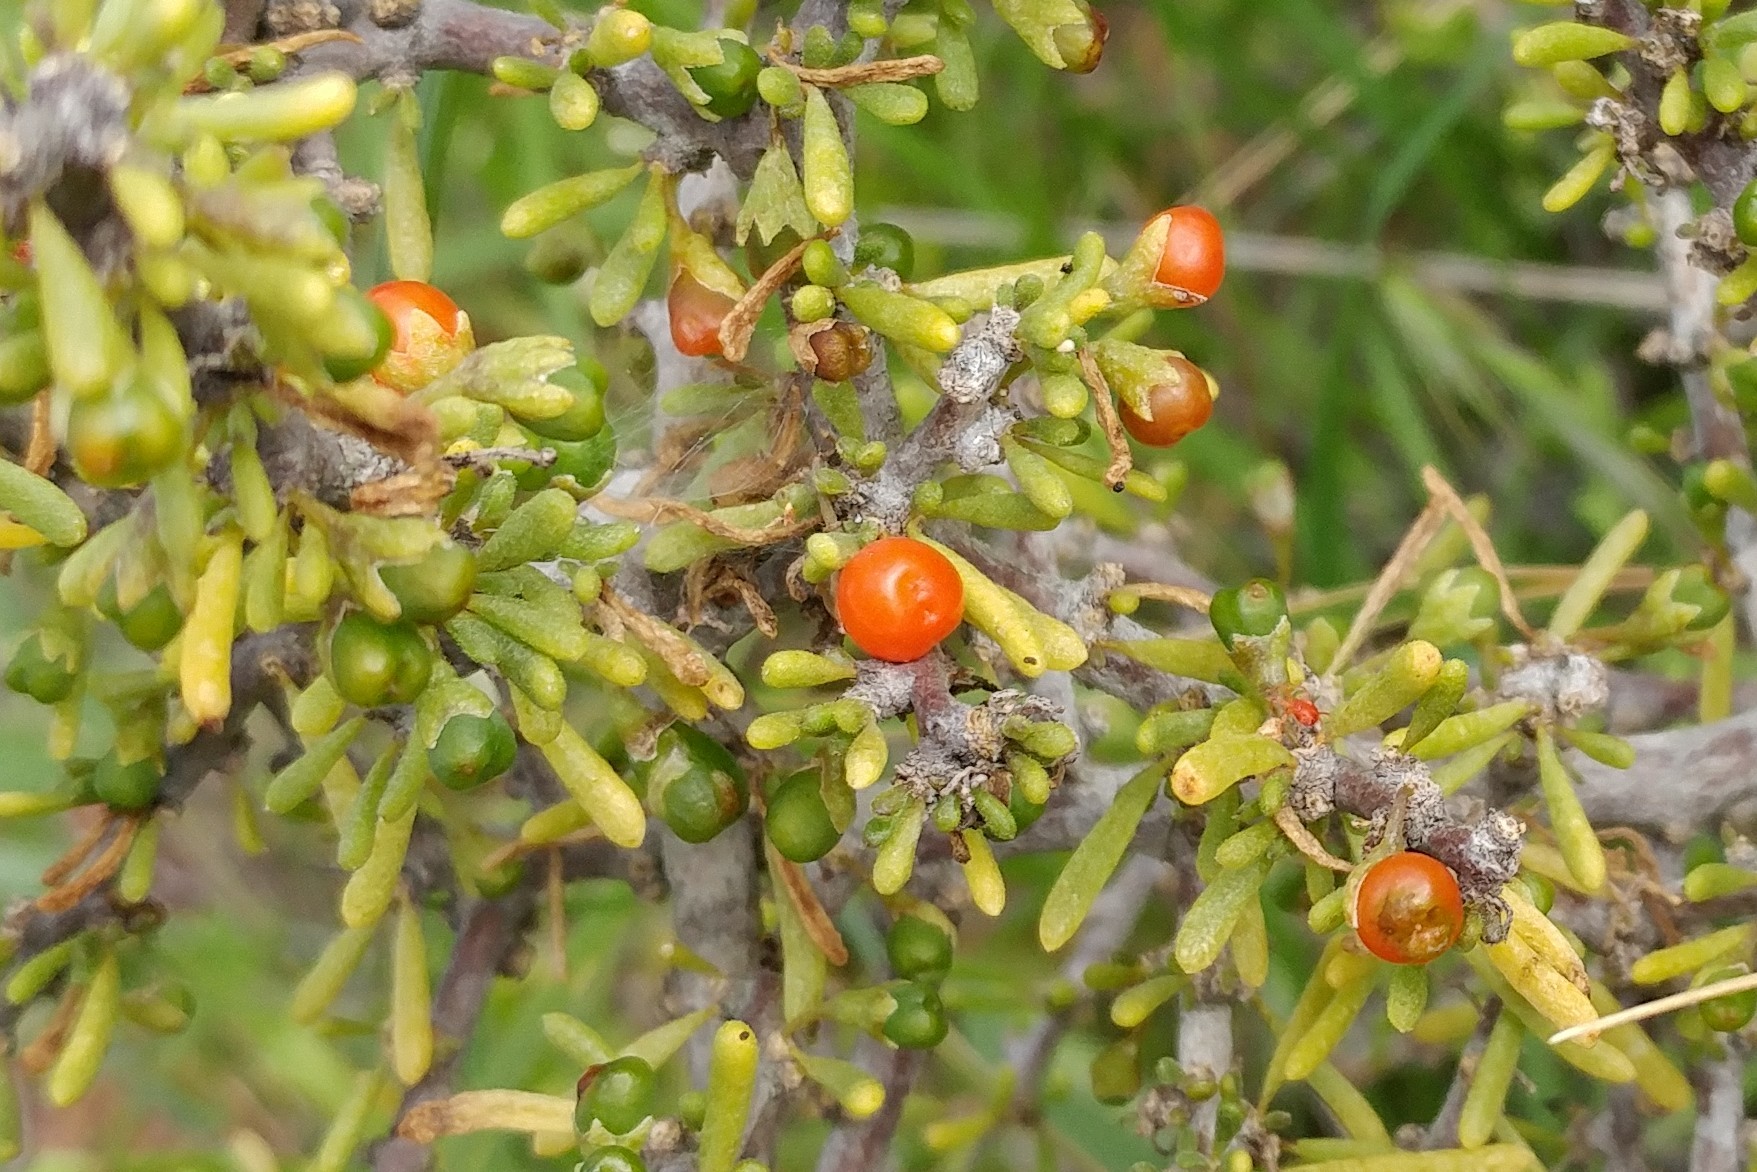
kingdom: Plantae
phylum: Tracheophyta
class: Magnoliopsida
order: Solanales
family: Solanaceae
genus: Lycium
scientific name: Lycium californicum
